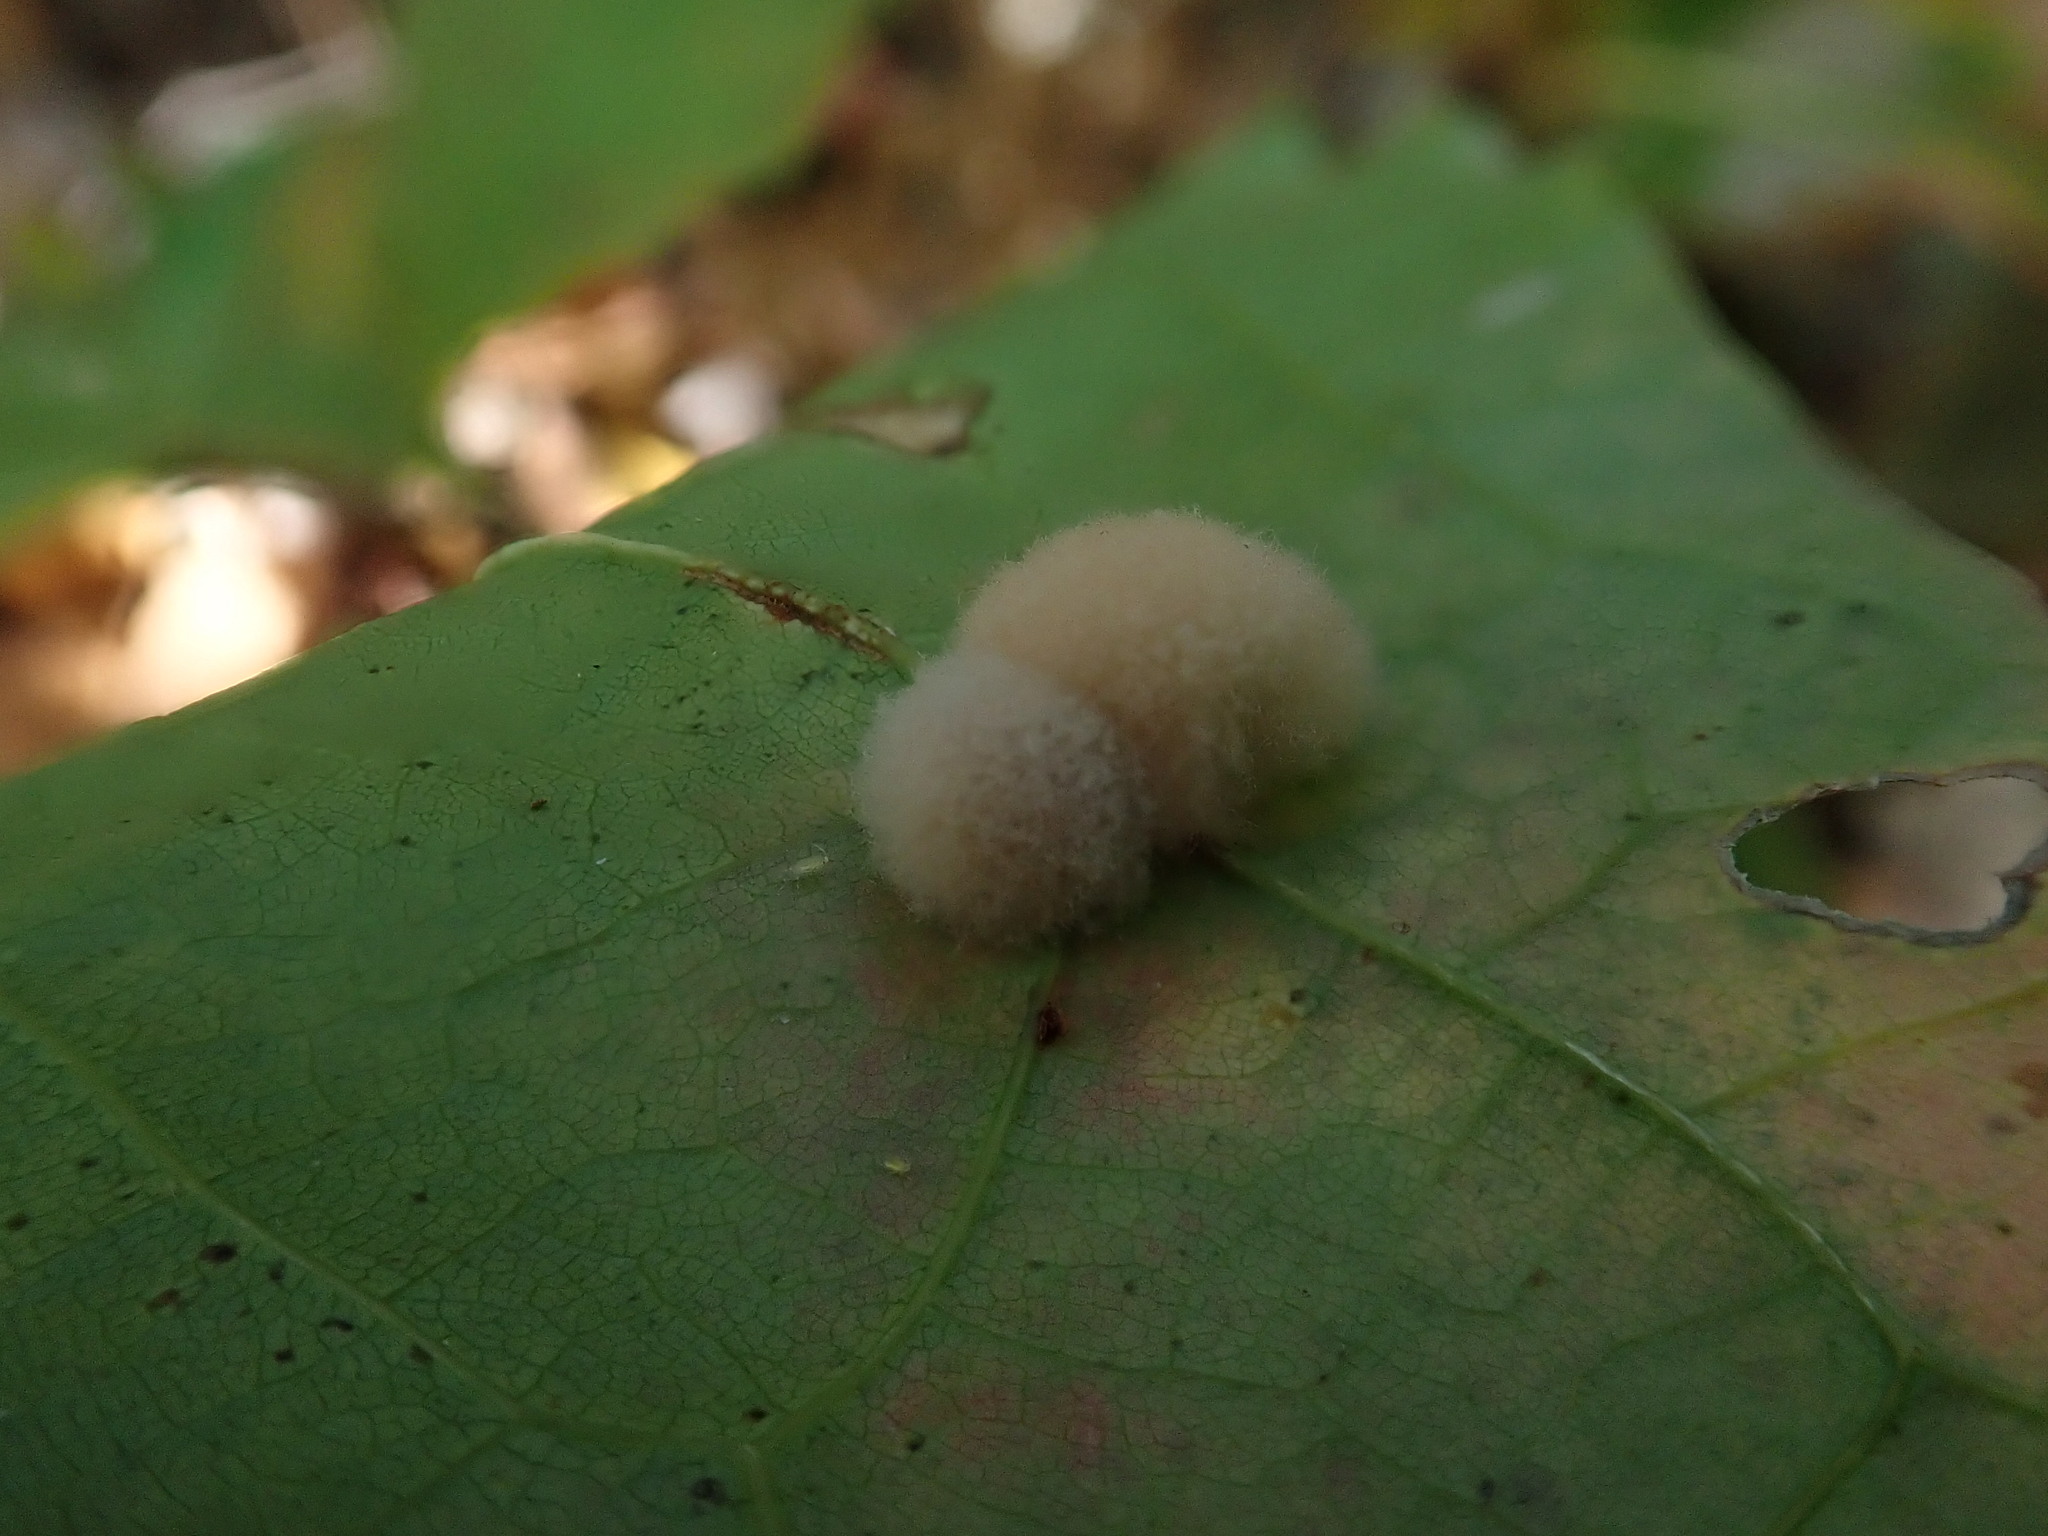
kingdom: Animalia
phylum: Arthropoda
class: Insecta
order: Hymenoptera
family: Cynipidae
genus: Callirhytis
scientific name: Callirhytis
